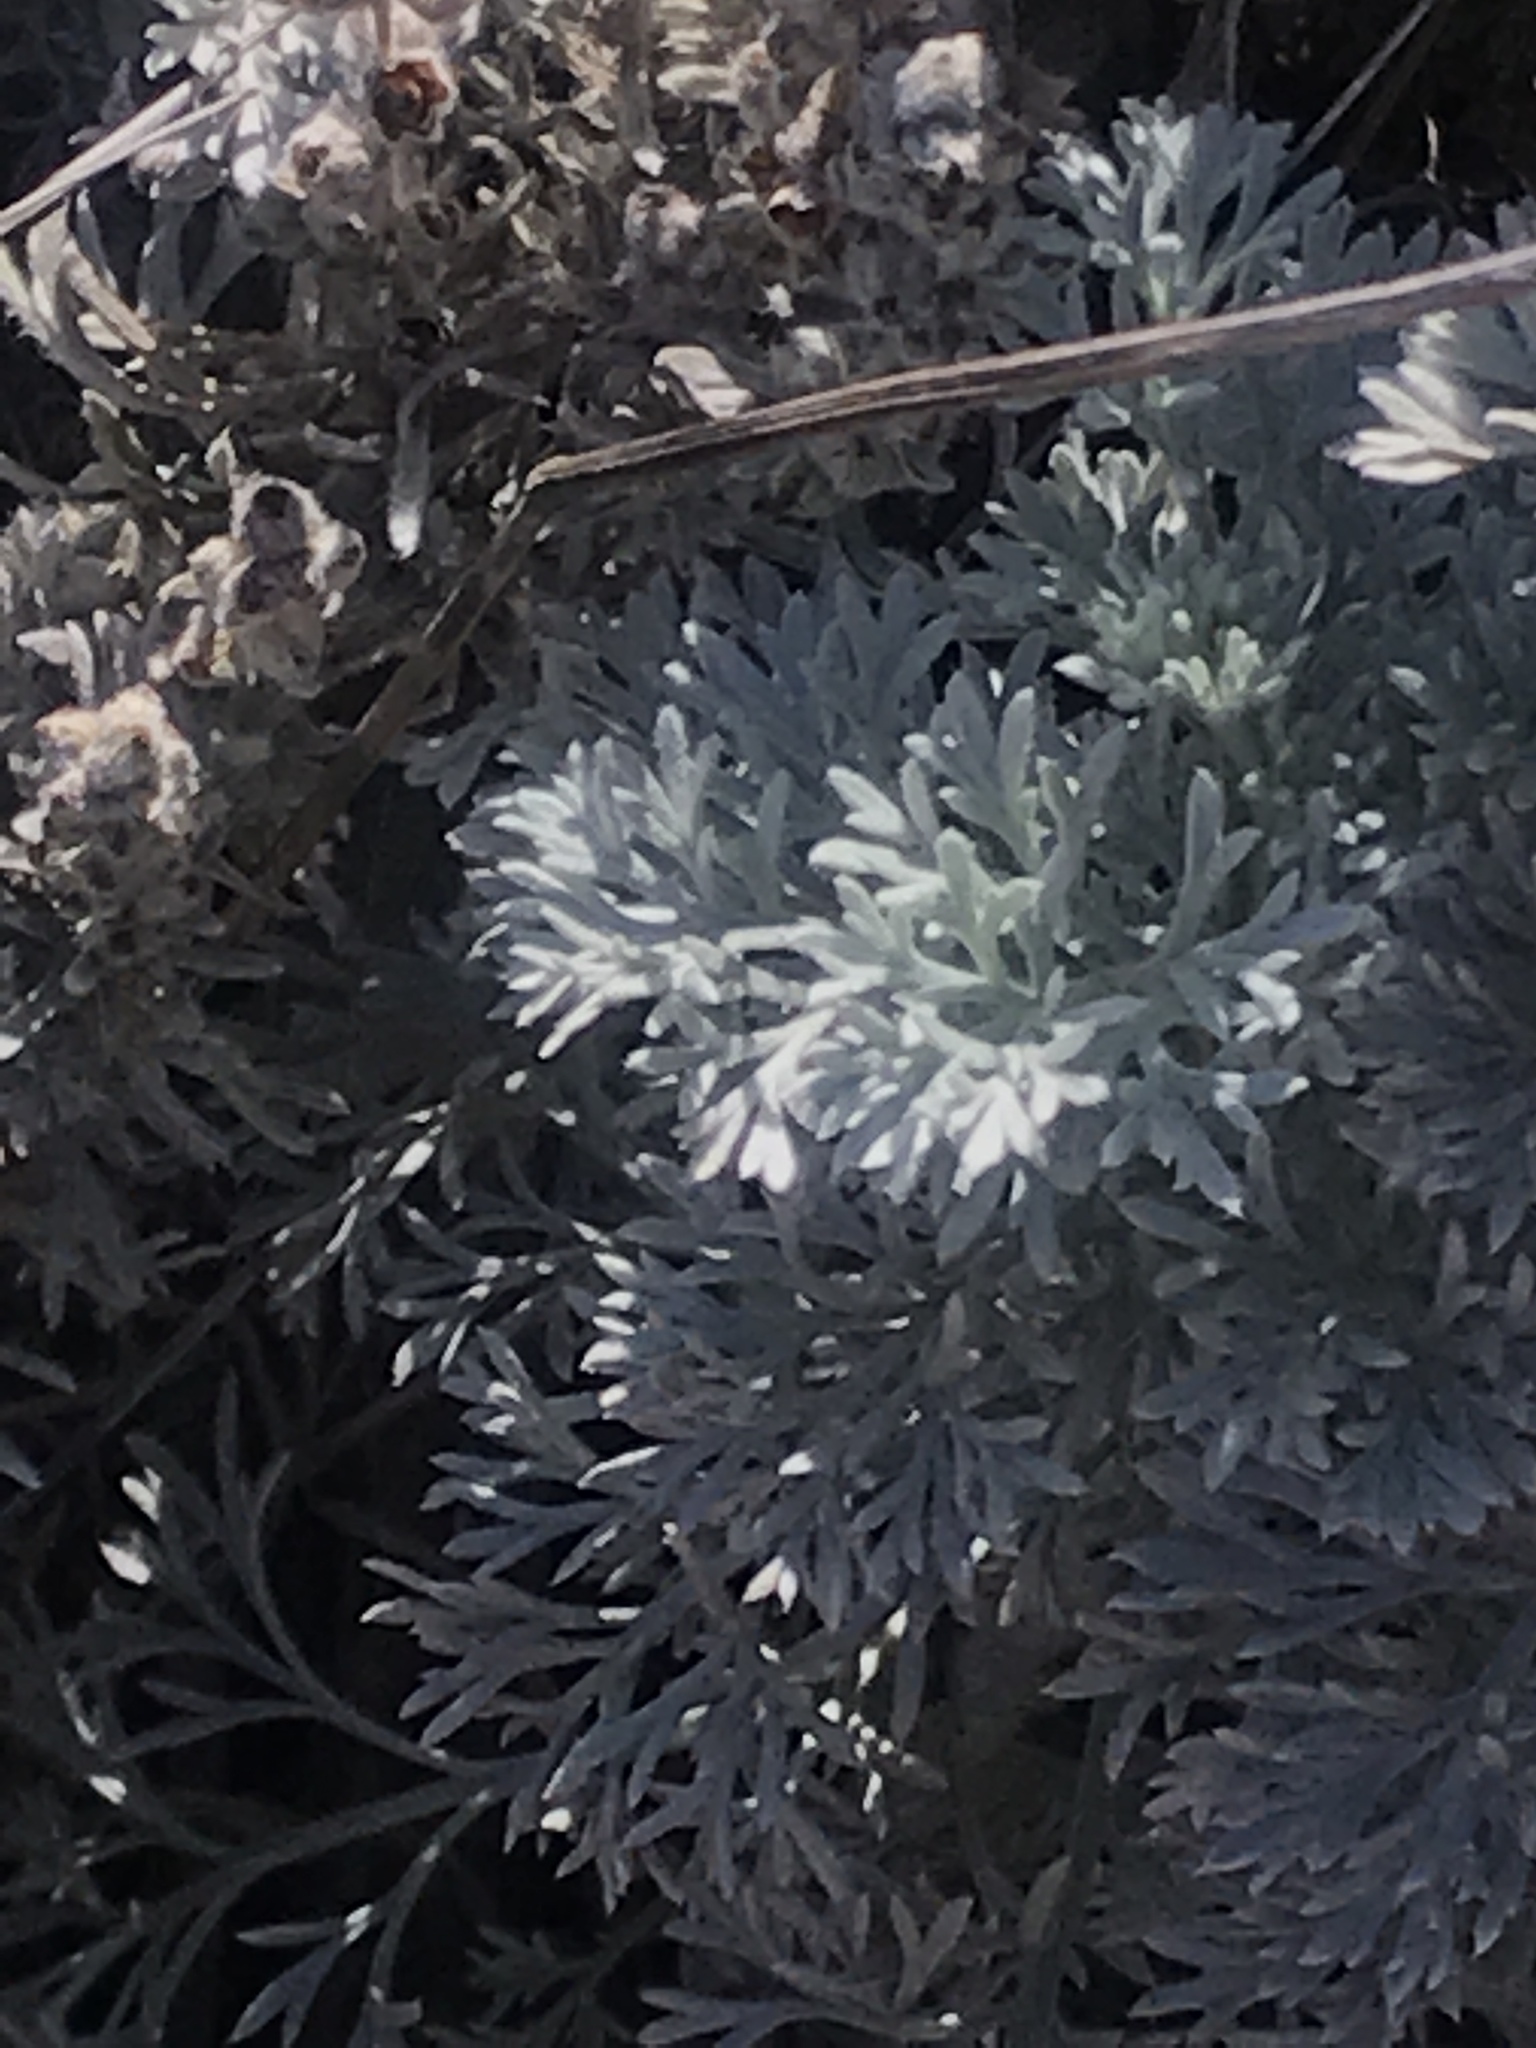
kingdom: Plantae
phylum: Tracheophyta
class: Magnoliopsida
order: Asterales
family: Asteraceae
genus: Artemisia
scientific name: Artemisia pycnocephala
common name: Coastal sagewort
